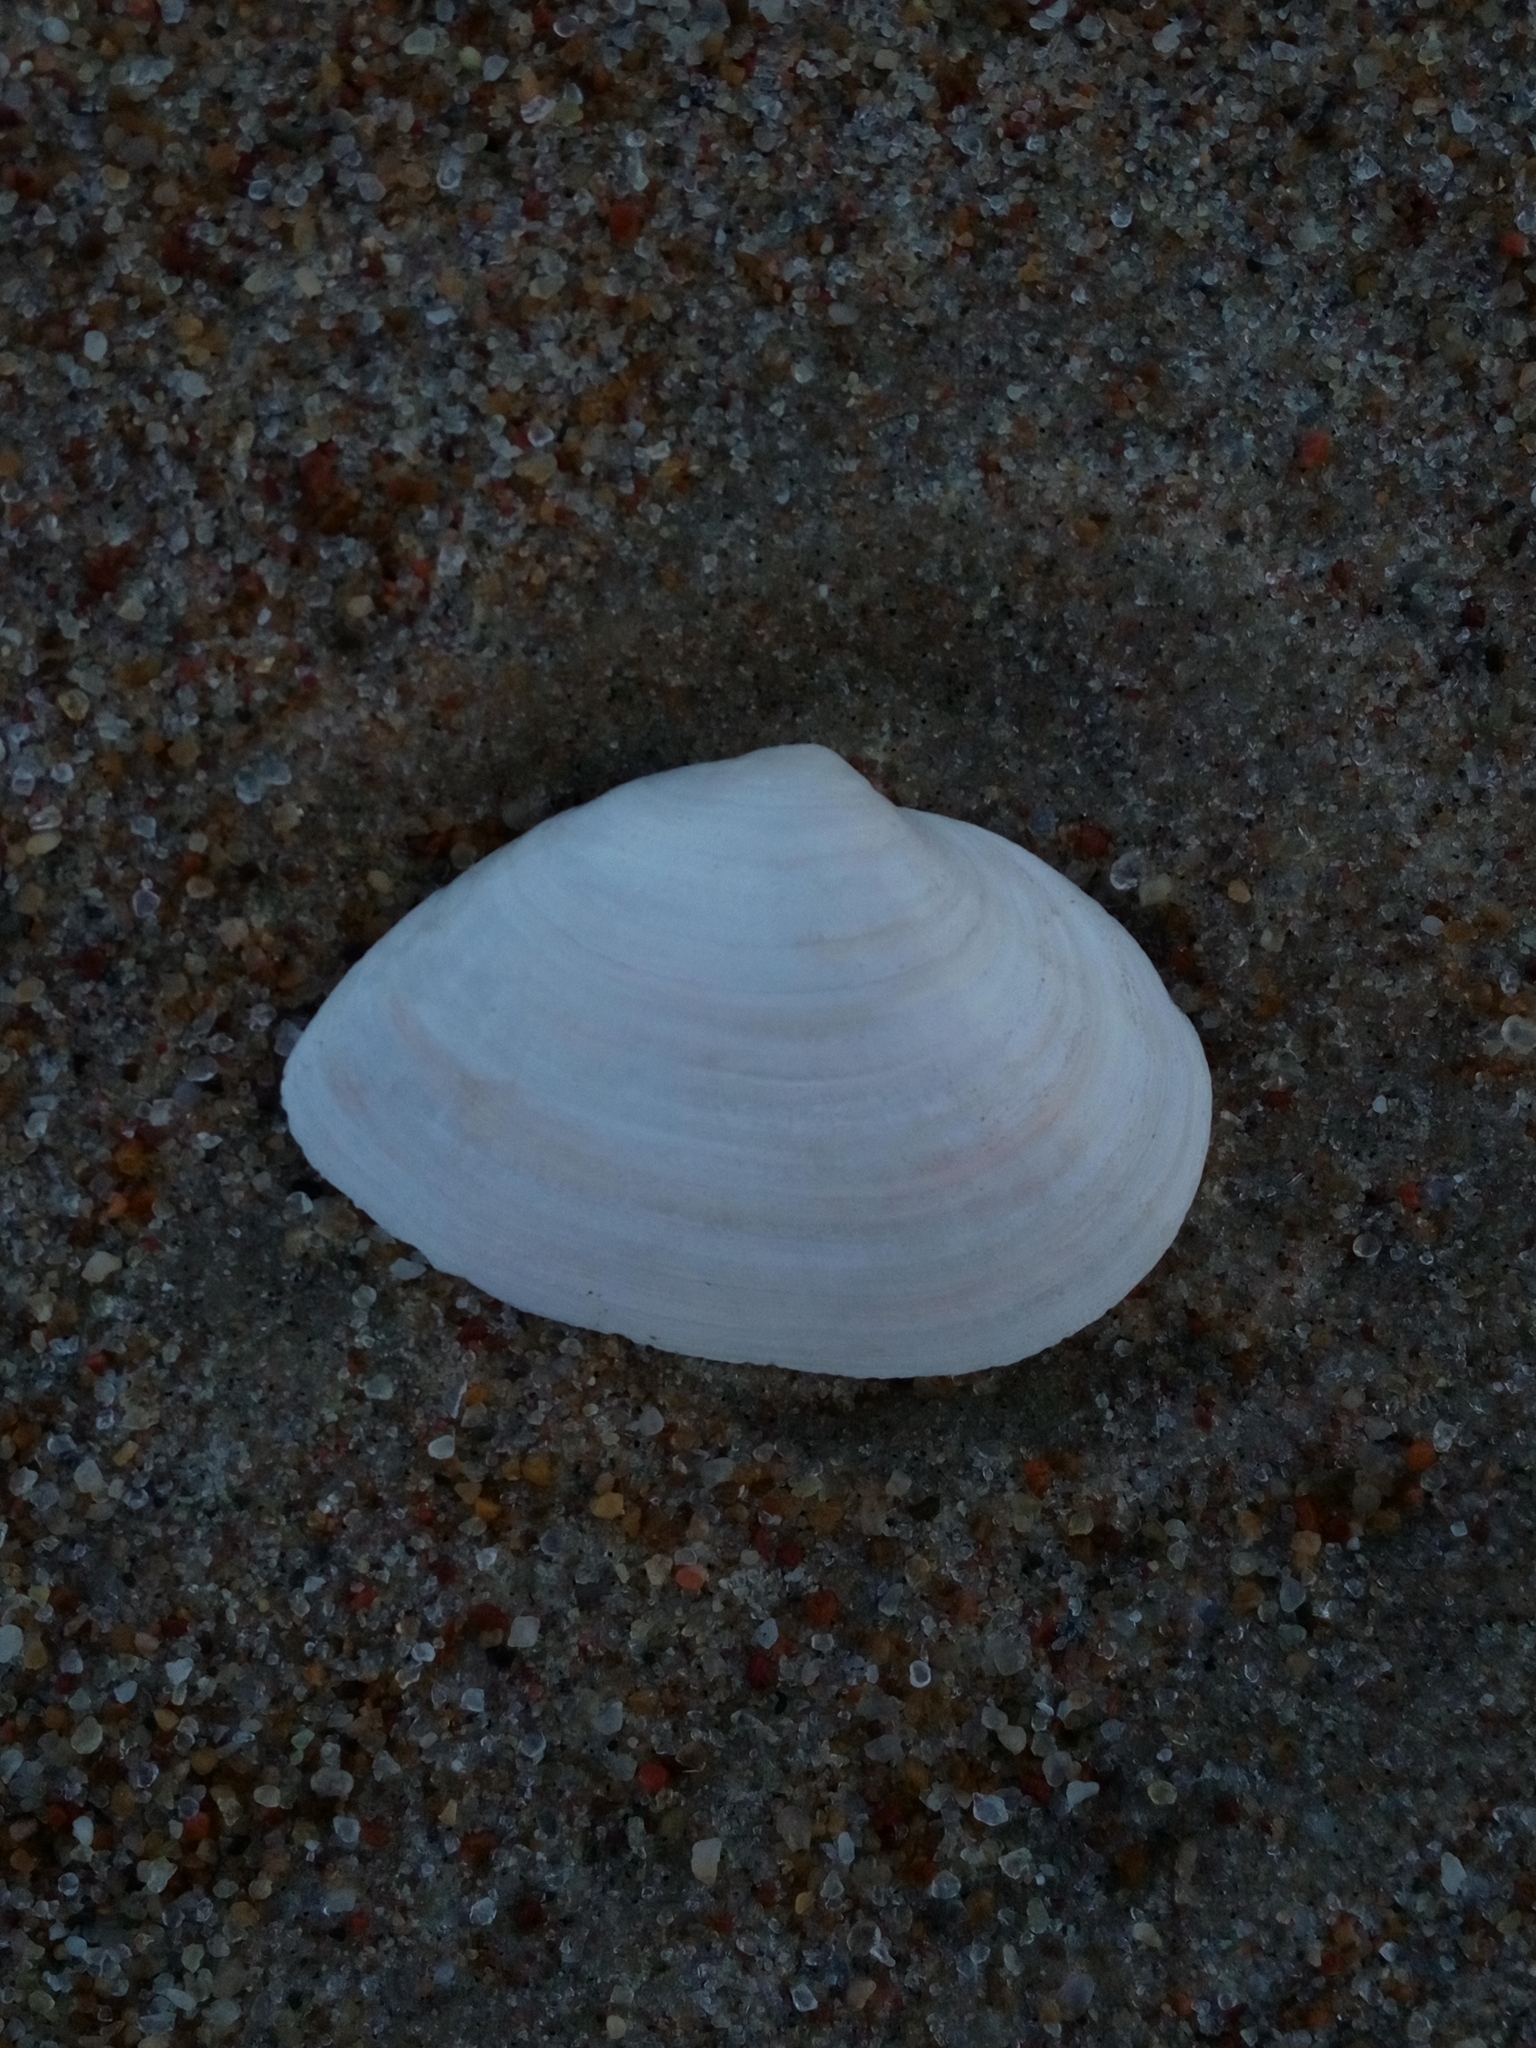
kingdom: Animalia
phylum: Mollusca
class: Bivalvia
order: Myida
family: Myidae
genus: Mya
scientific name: Mya arenaria
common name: Soft-shelled clam
